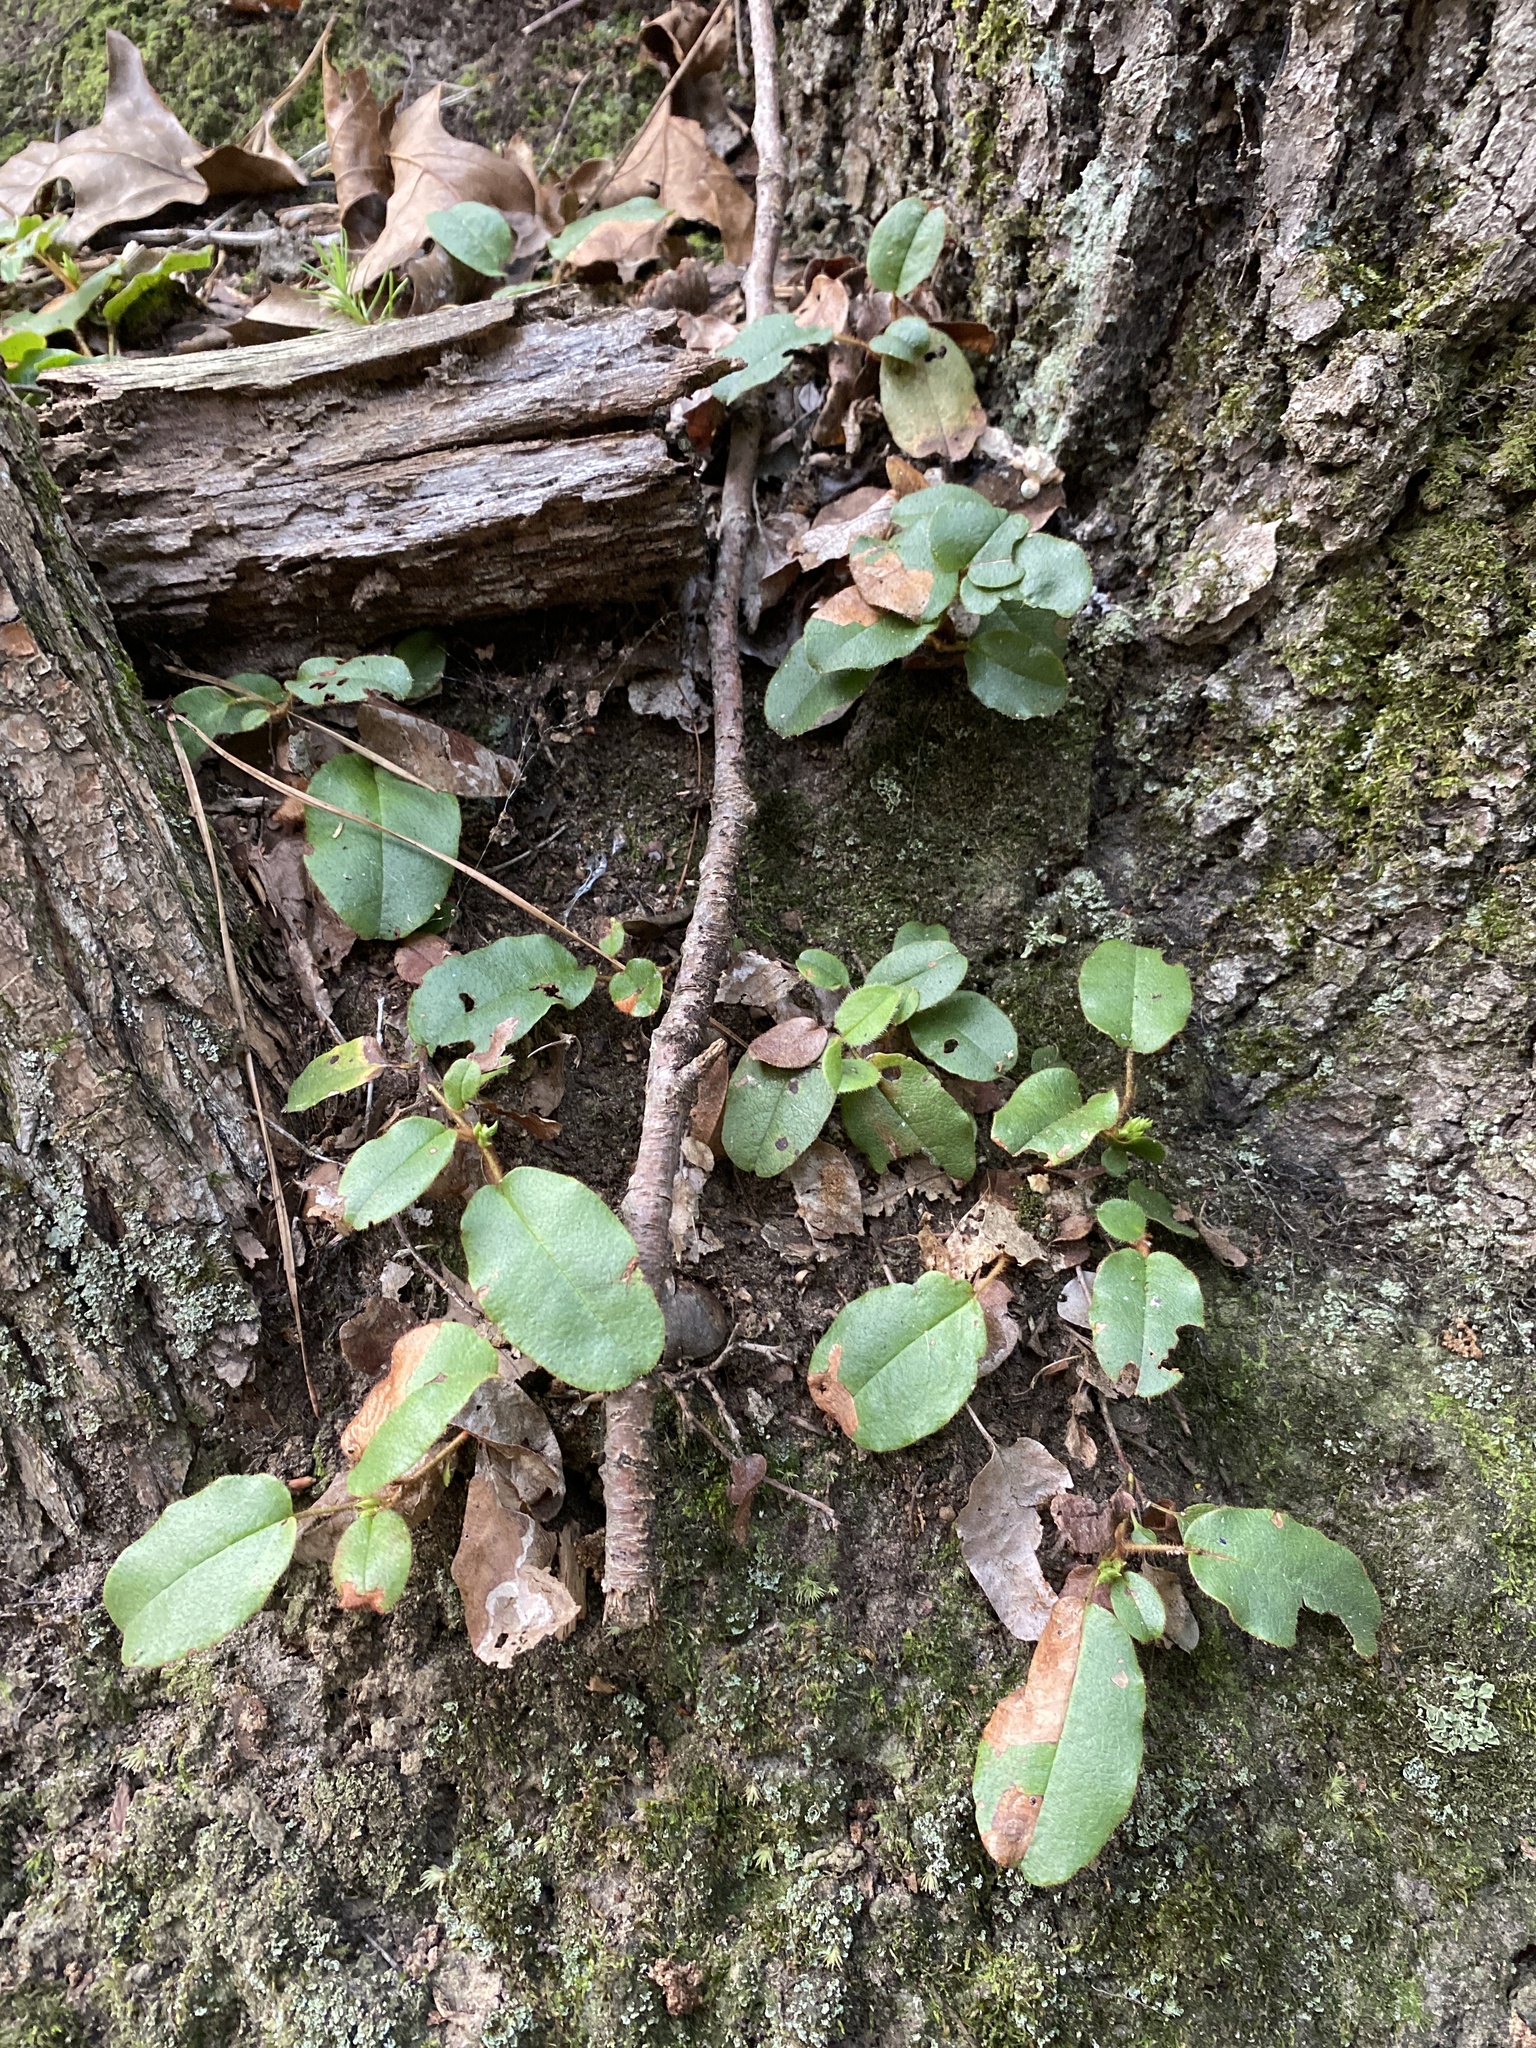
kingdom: Plantae
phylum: Tracheophyta
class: Magnoliopsida
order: Ericales
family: Ericaceae
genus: Epigaea
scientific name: Epigaea repens
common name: Gravelroot
